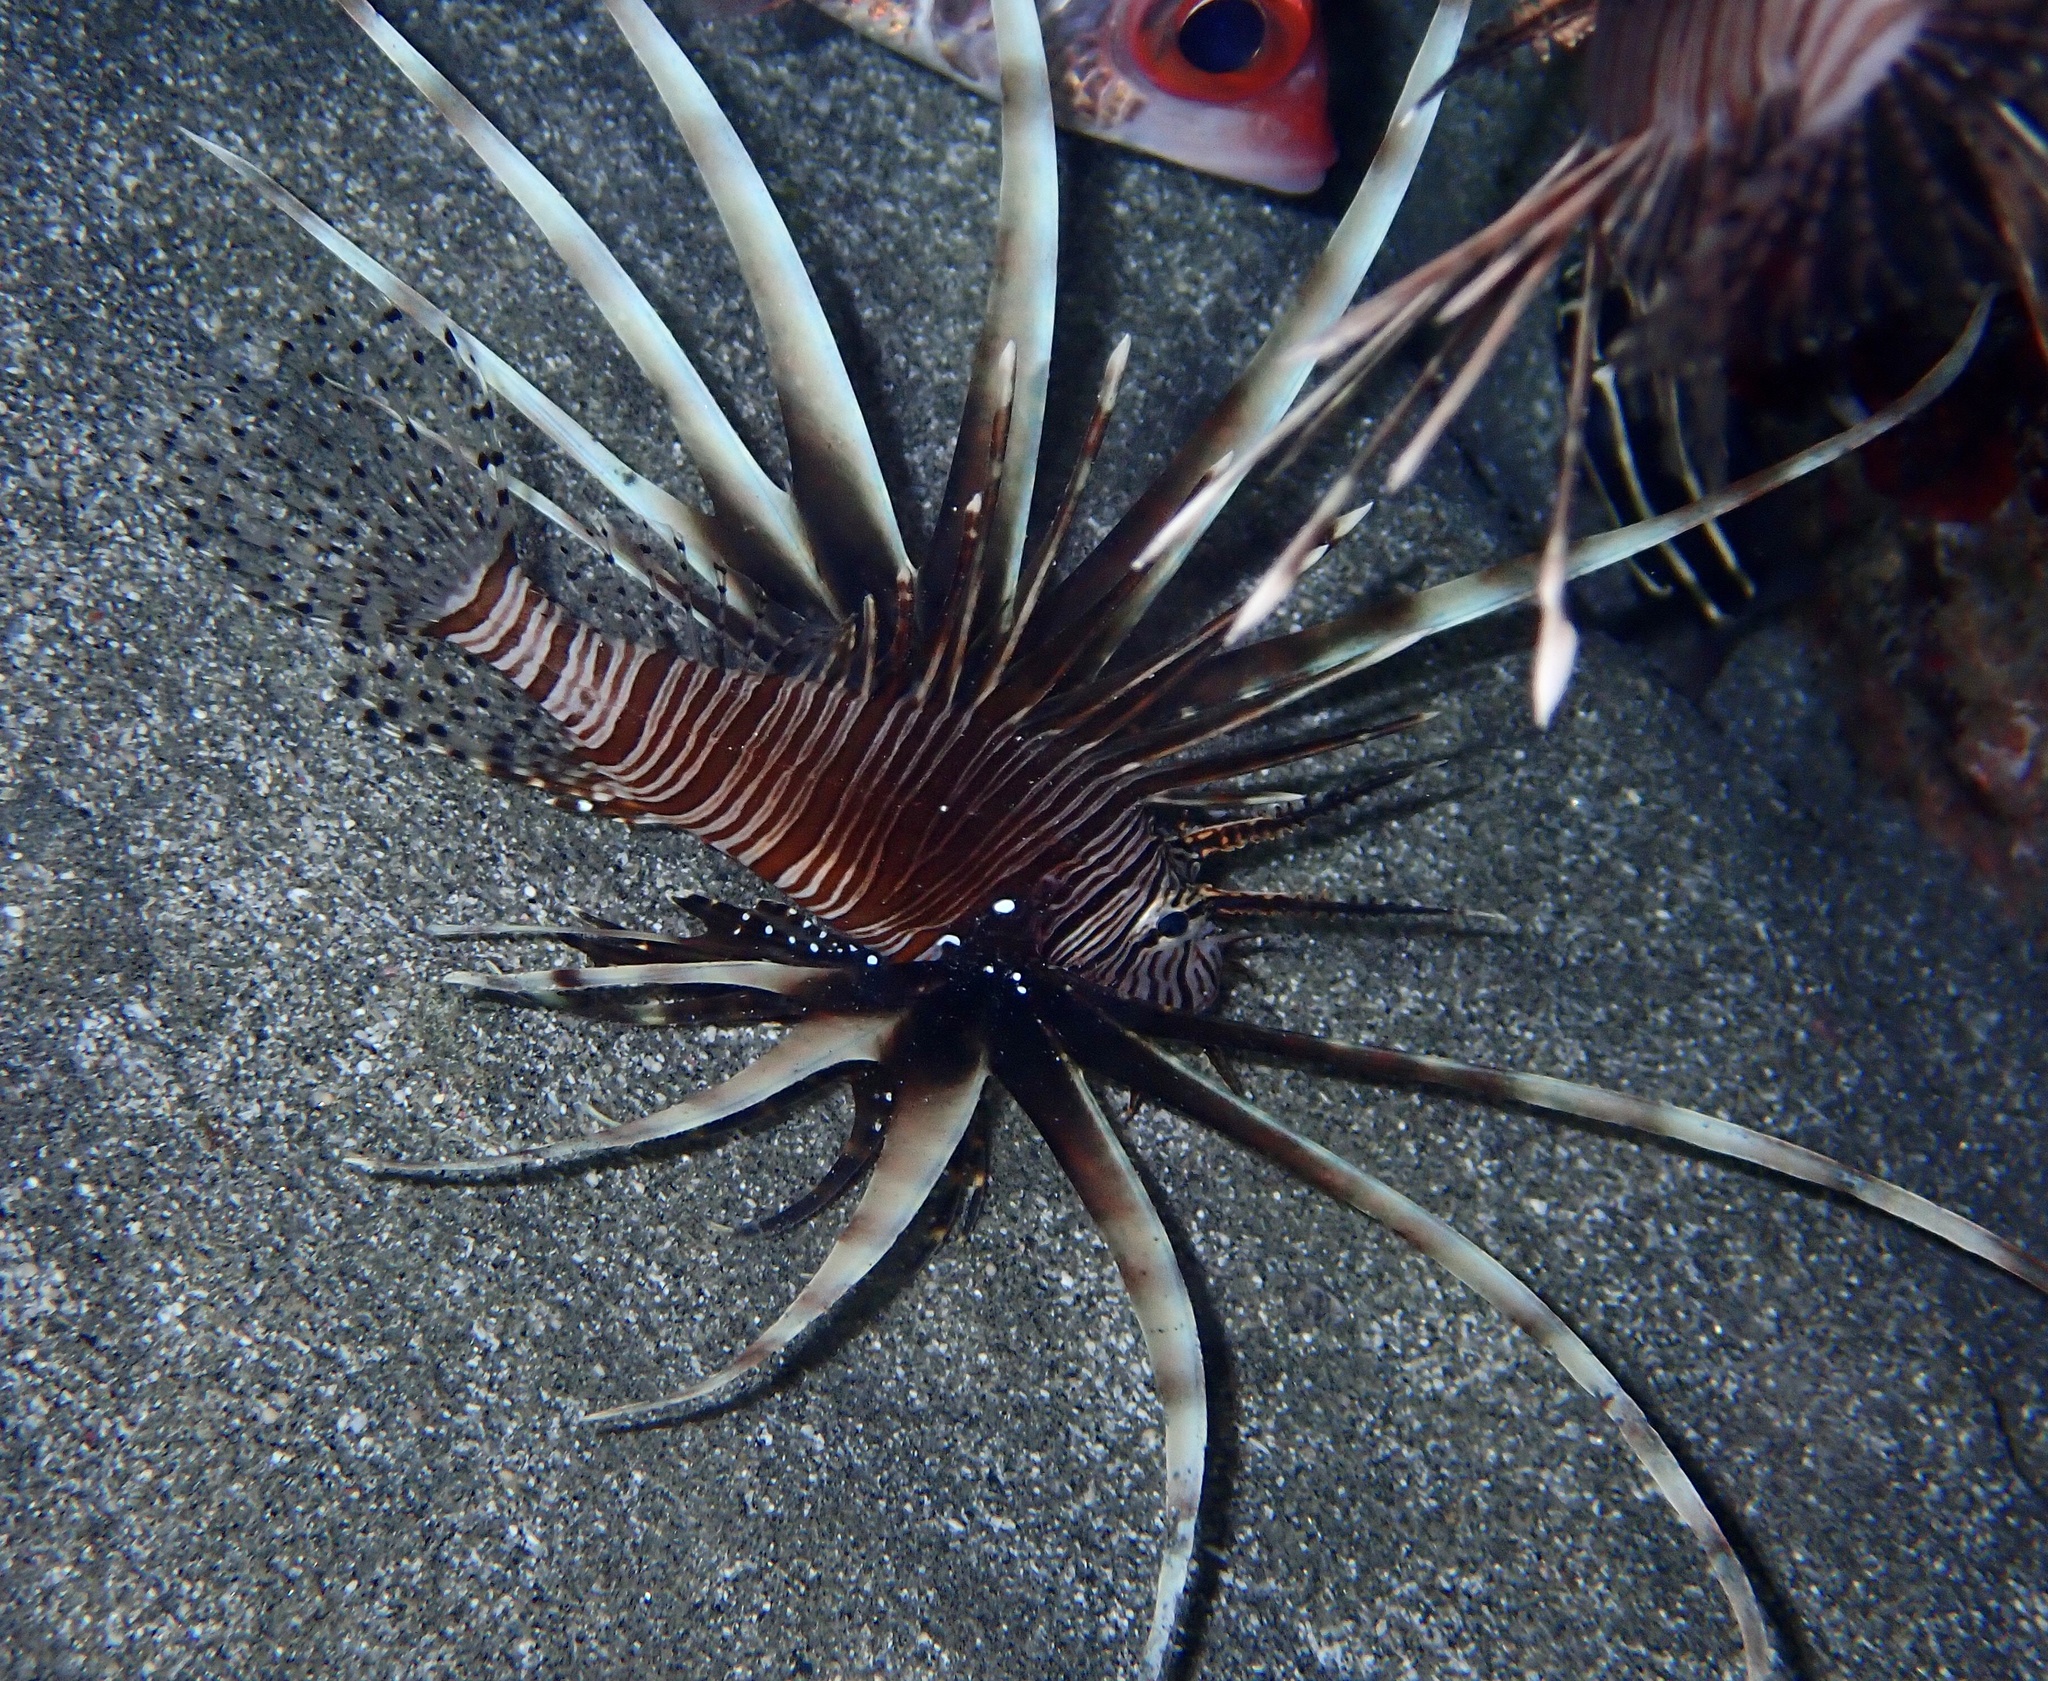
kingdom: Animalia
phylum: Chordata
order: Scorpaeniformes
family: Scorpaenidae
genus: Pterois
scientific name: Pterois miles
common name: Devil firefish
